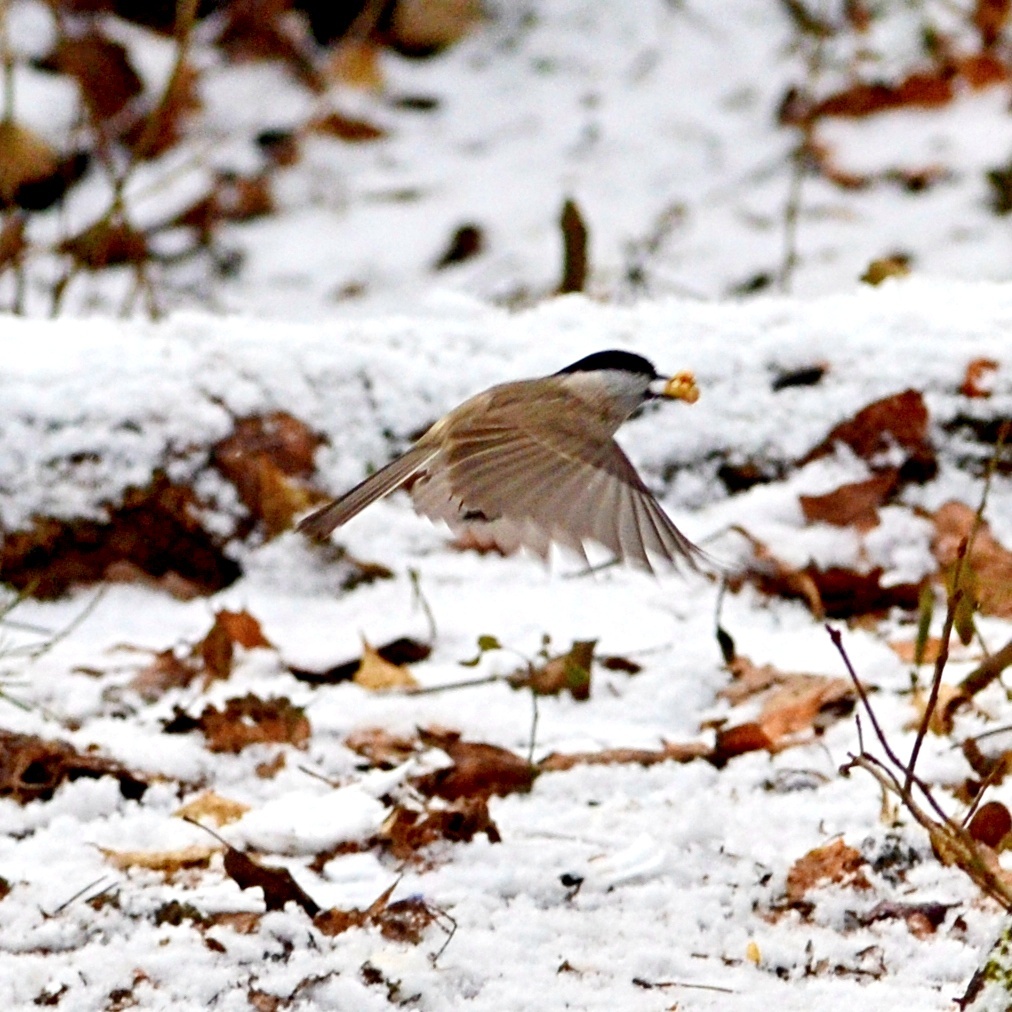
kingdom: Animalia
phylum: Chordata
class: Aves
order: Passeriformes
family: Paridae
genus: Poecile
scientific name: Poecile palustris
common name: Marsh tit
